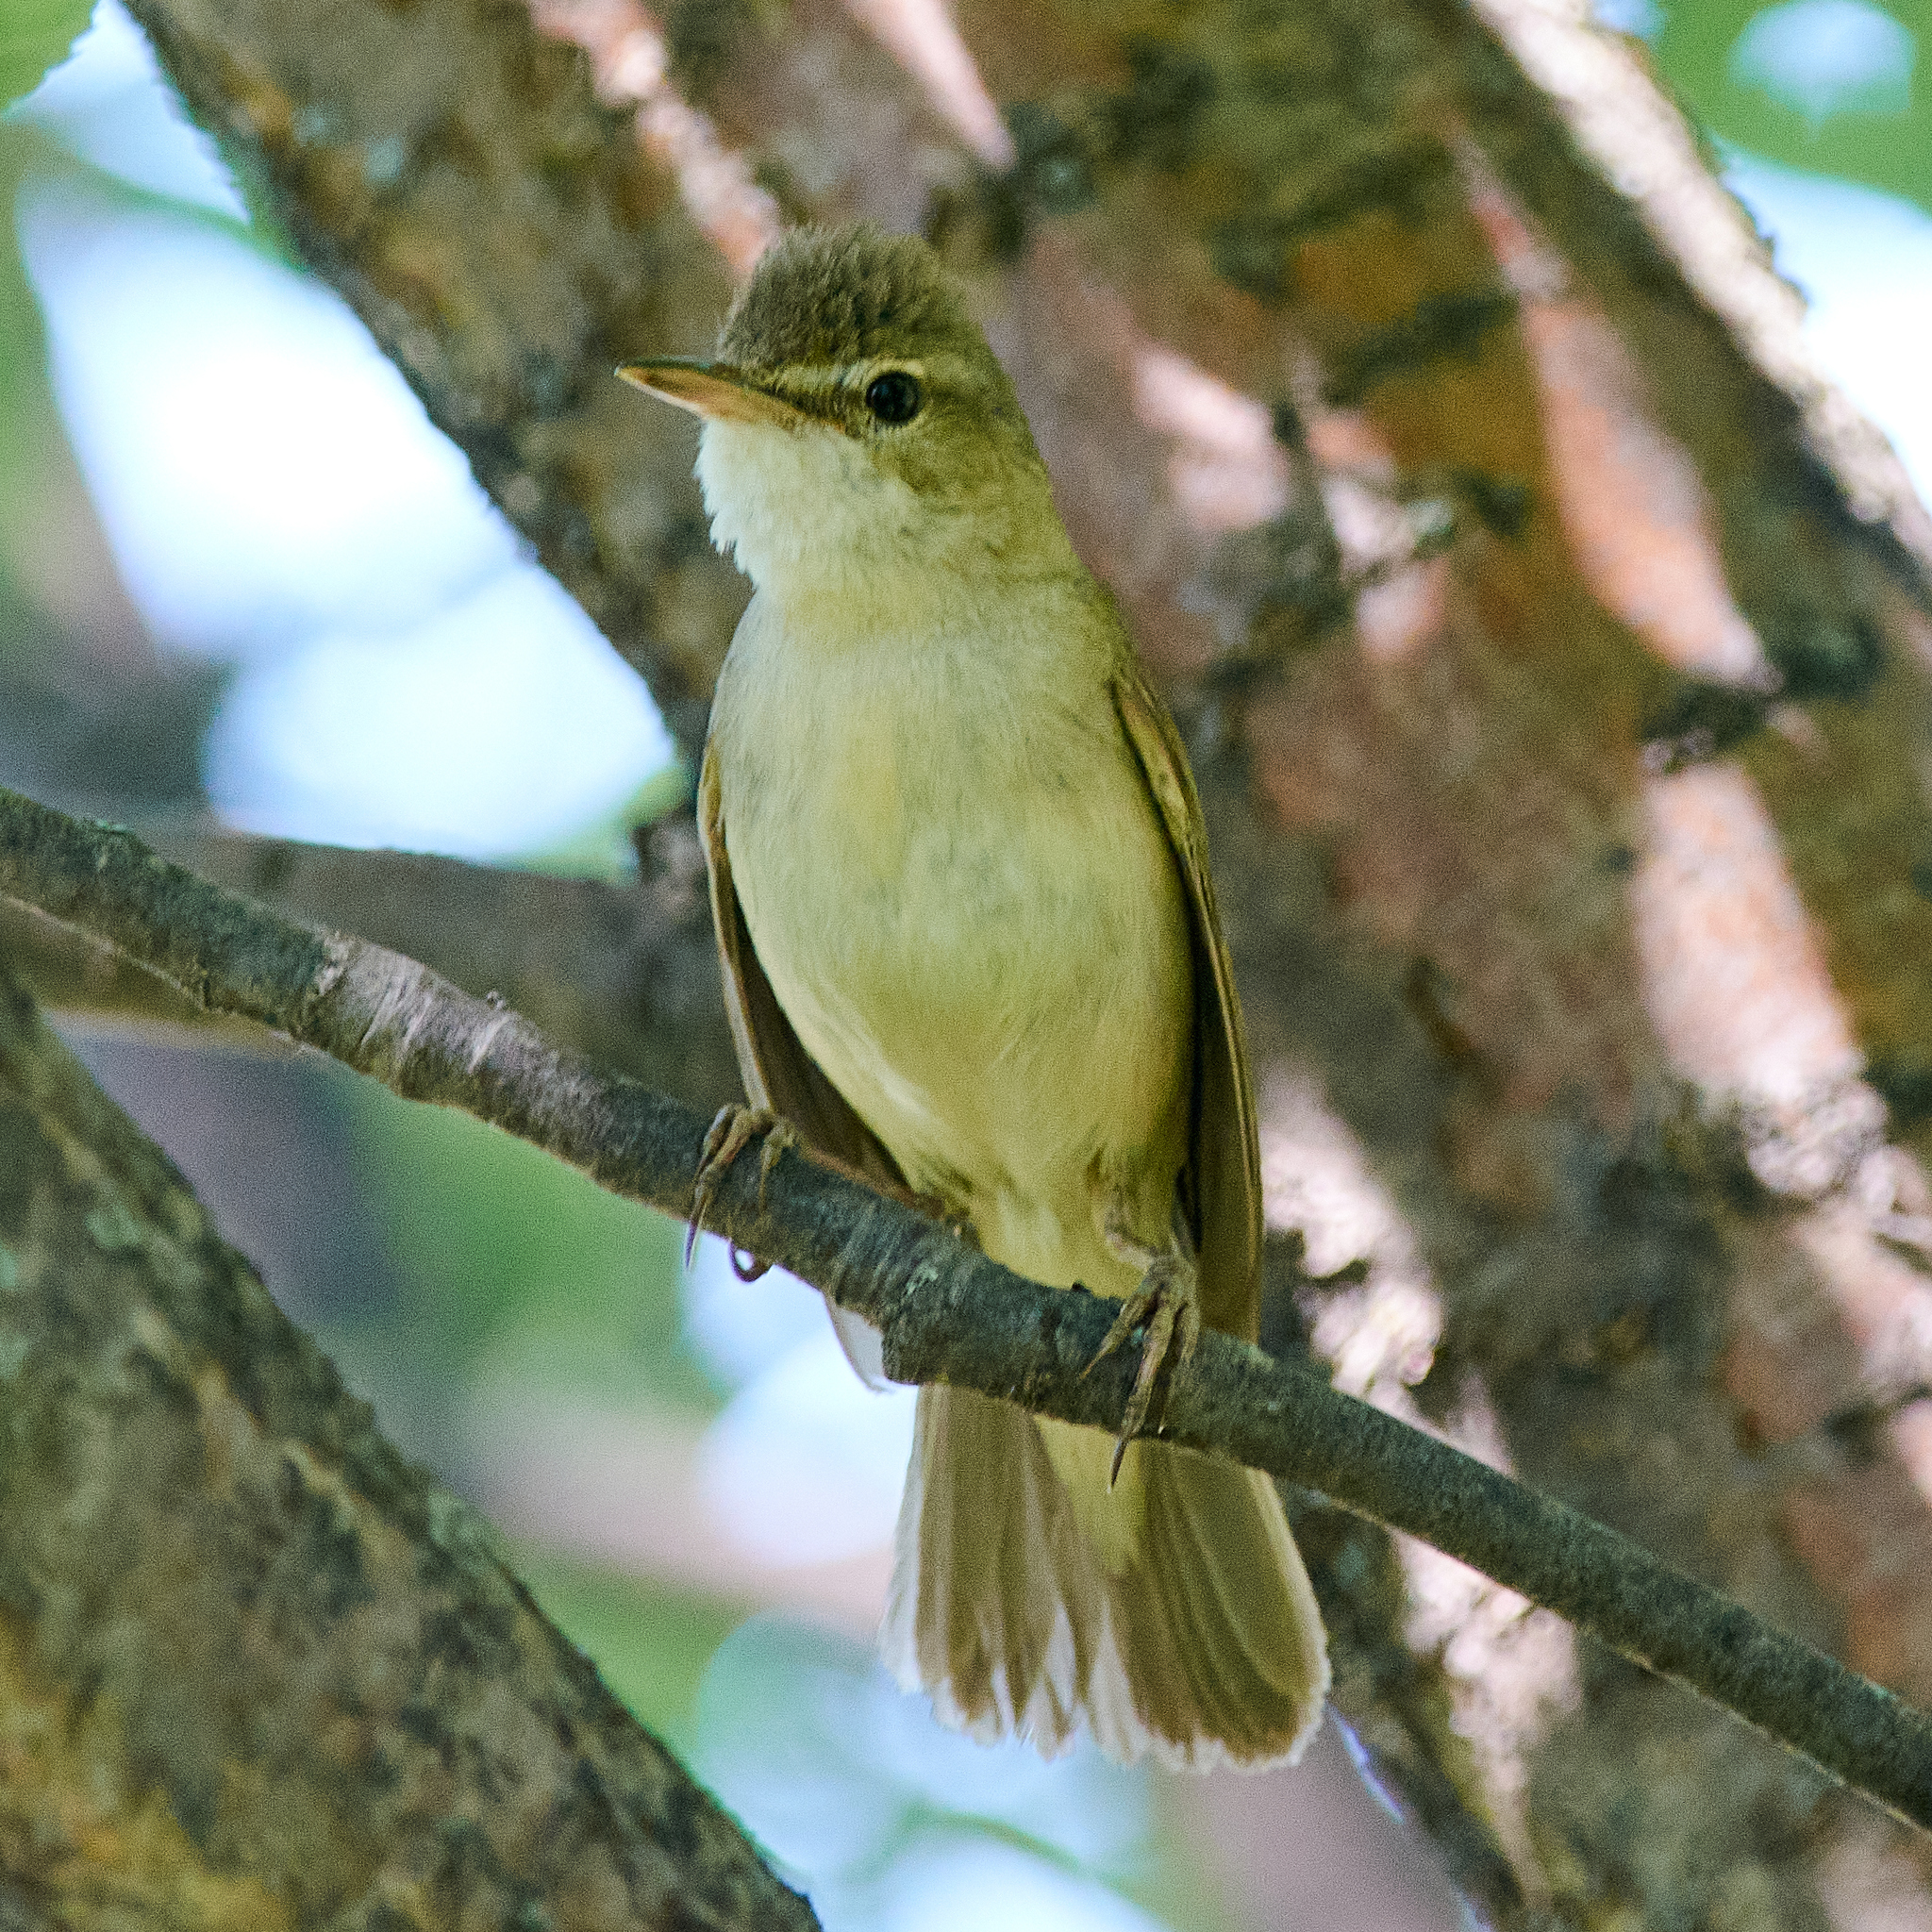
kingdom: Animalia
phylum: Chordata
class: Aves
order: Passeriformes
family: Acrocephalidae
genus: Acrocephalus
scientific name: Acrocephalus dumetorum
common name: Blyth's reed warbler
